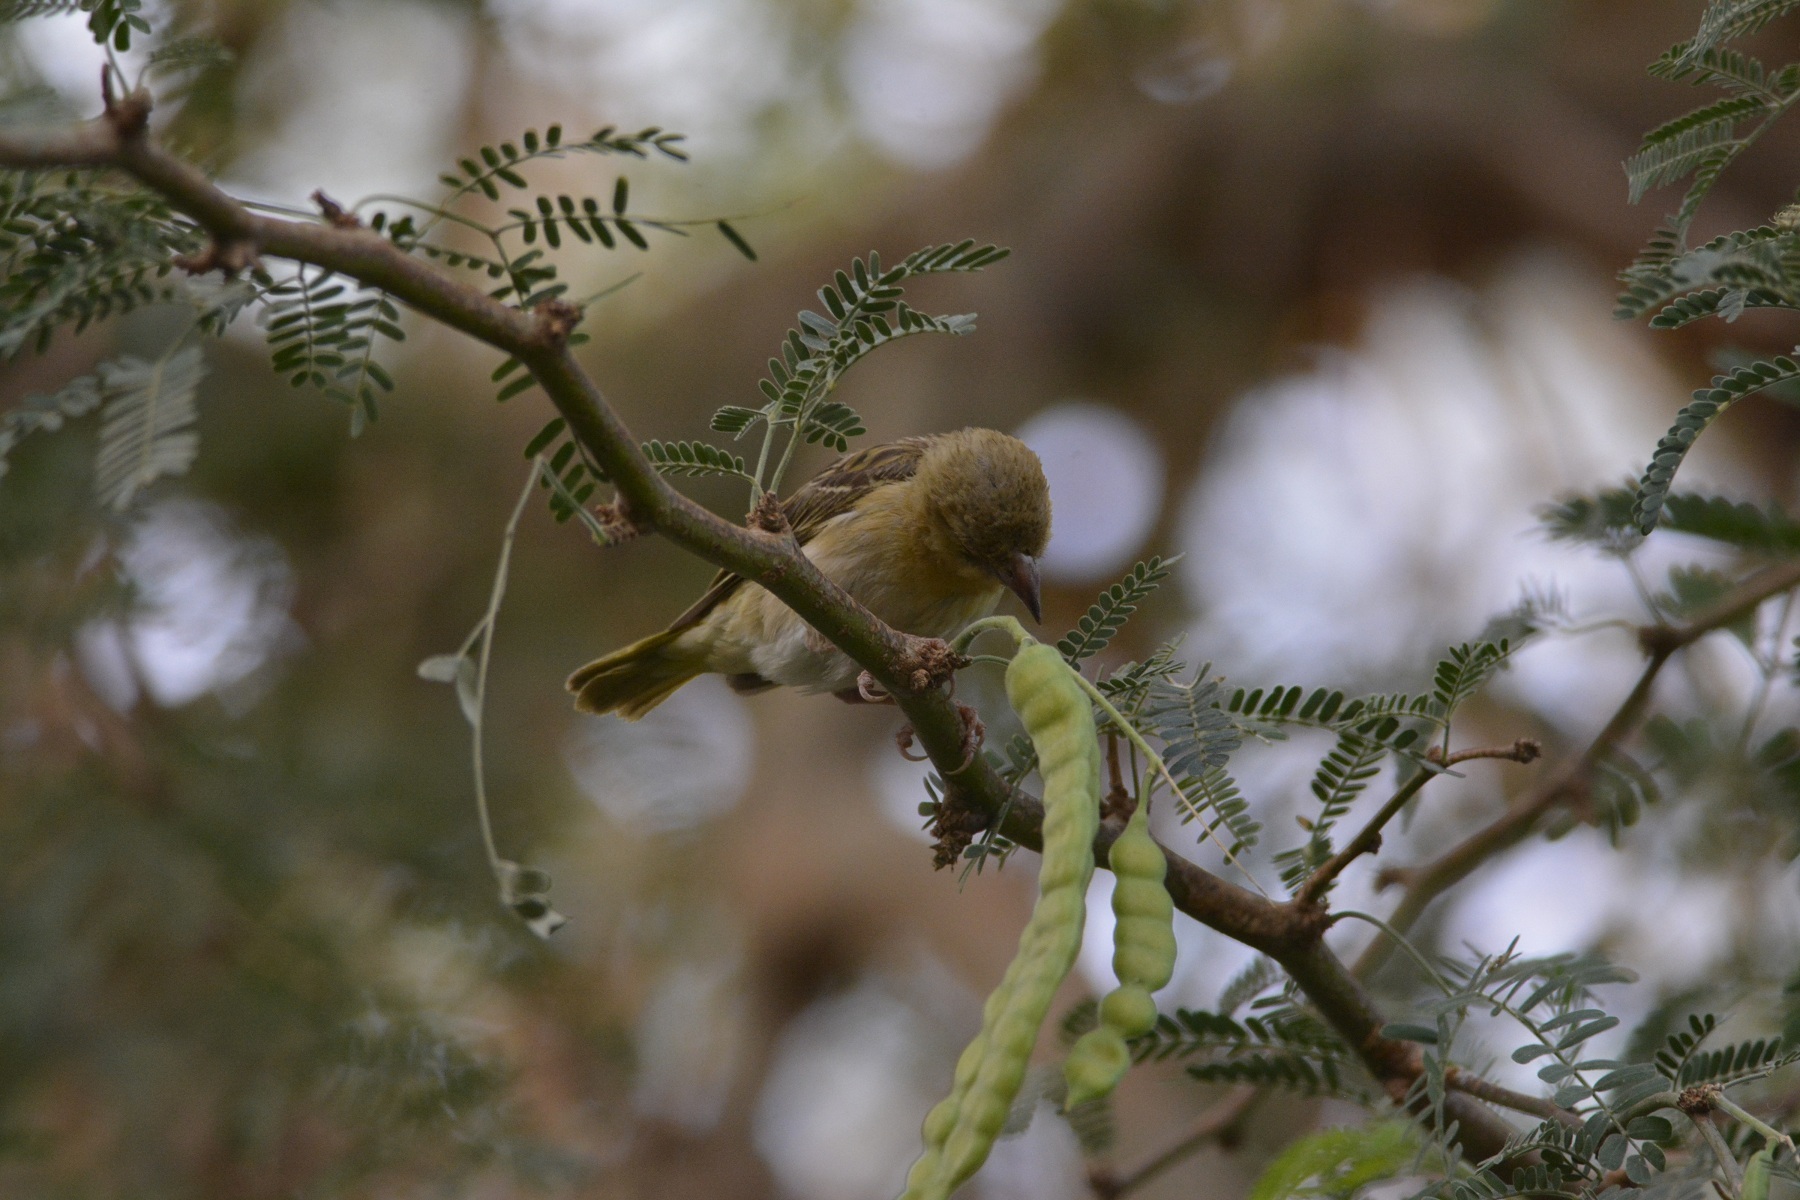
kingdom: Animalia
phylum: Chordata
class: Aves
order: Passeriformes
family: Ploceidae
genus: Ploceus
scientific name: Ploceus vitellinus
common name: Vitelline masked weaver
